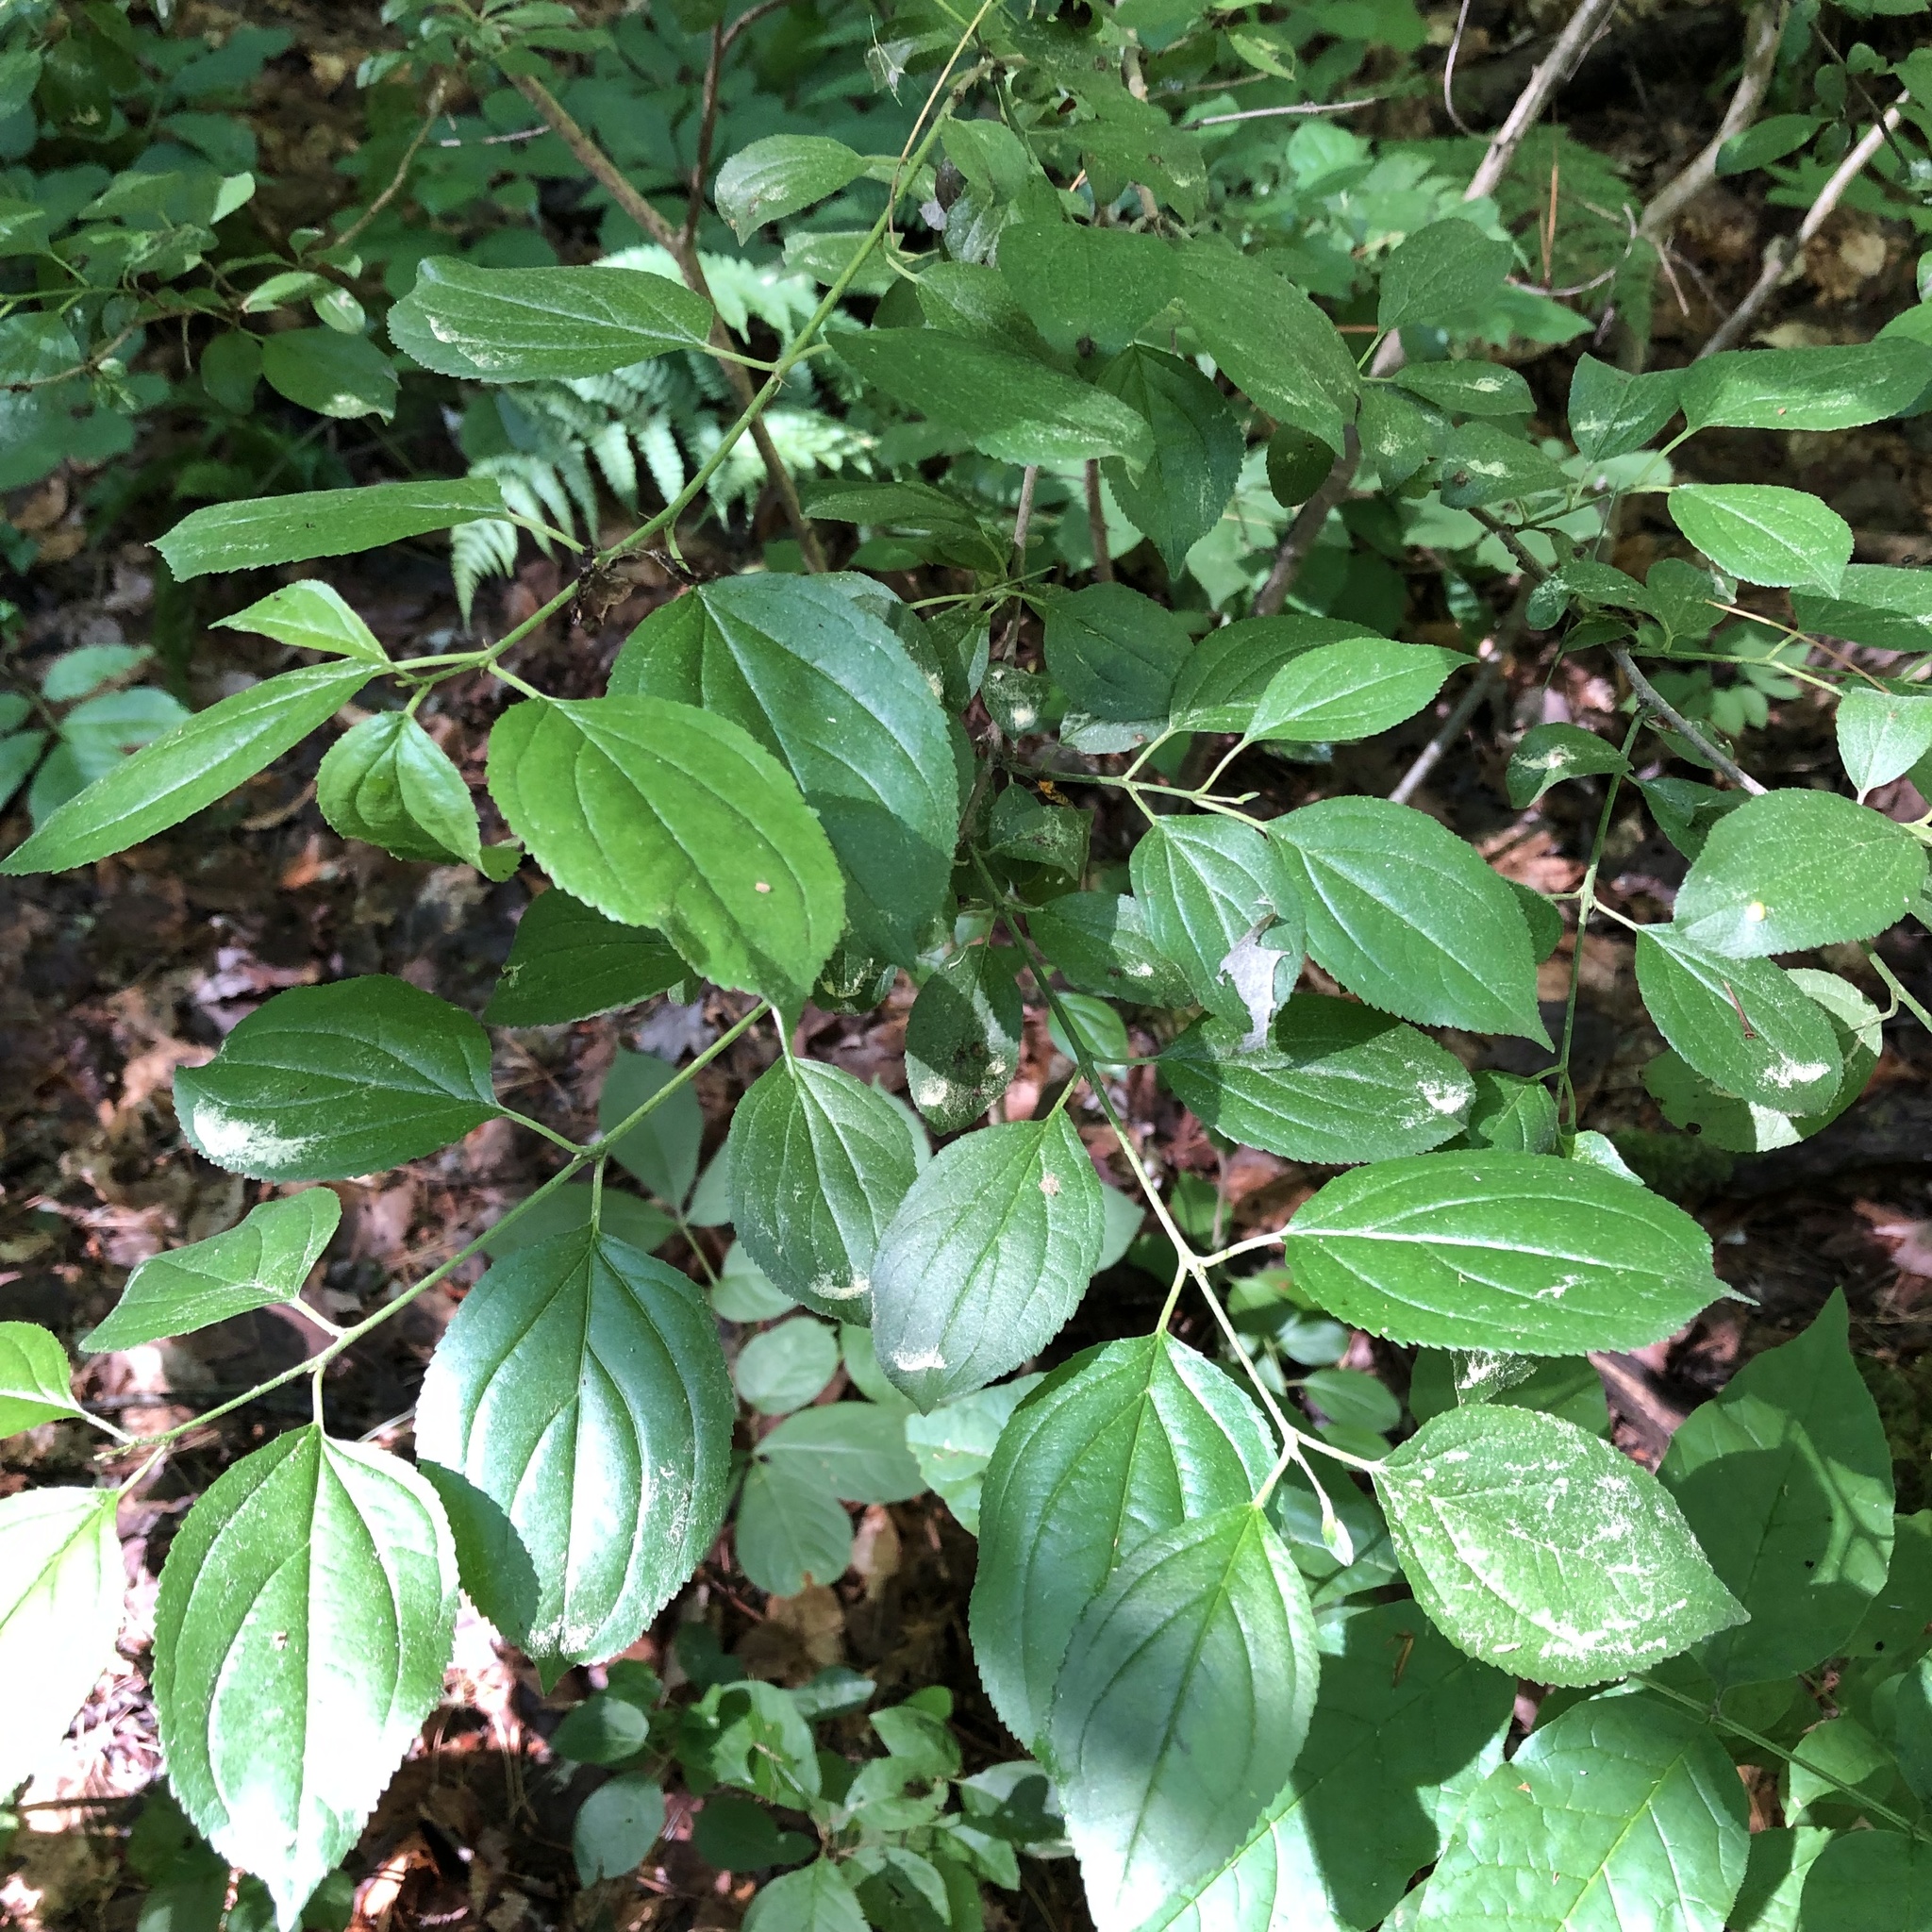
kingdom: Plantae
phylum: Tracheophyta
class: Magnoliopsida
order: Rosales
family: Rhamnaceae
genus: Rhamnus
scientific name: Rhamnus cathartica
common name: Common buckthorn
